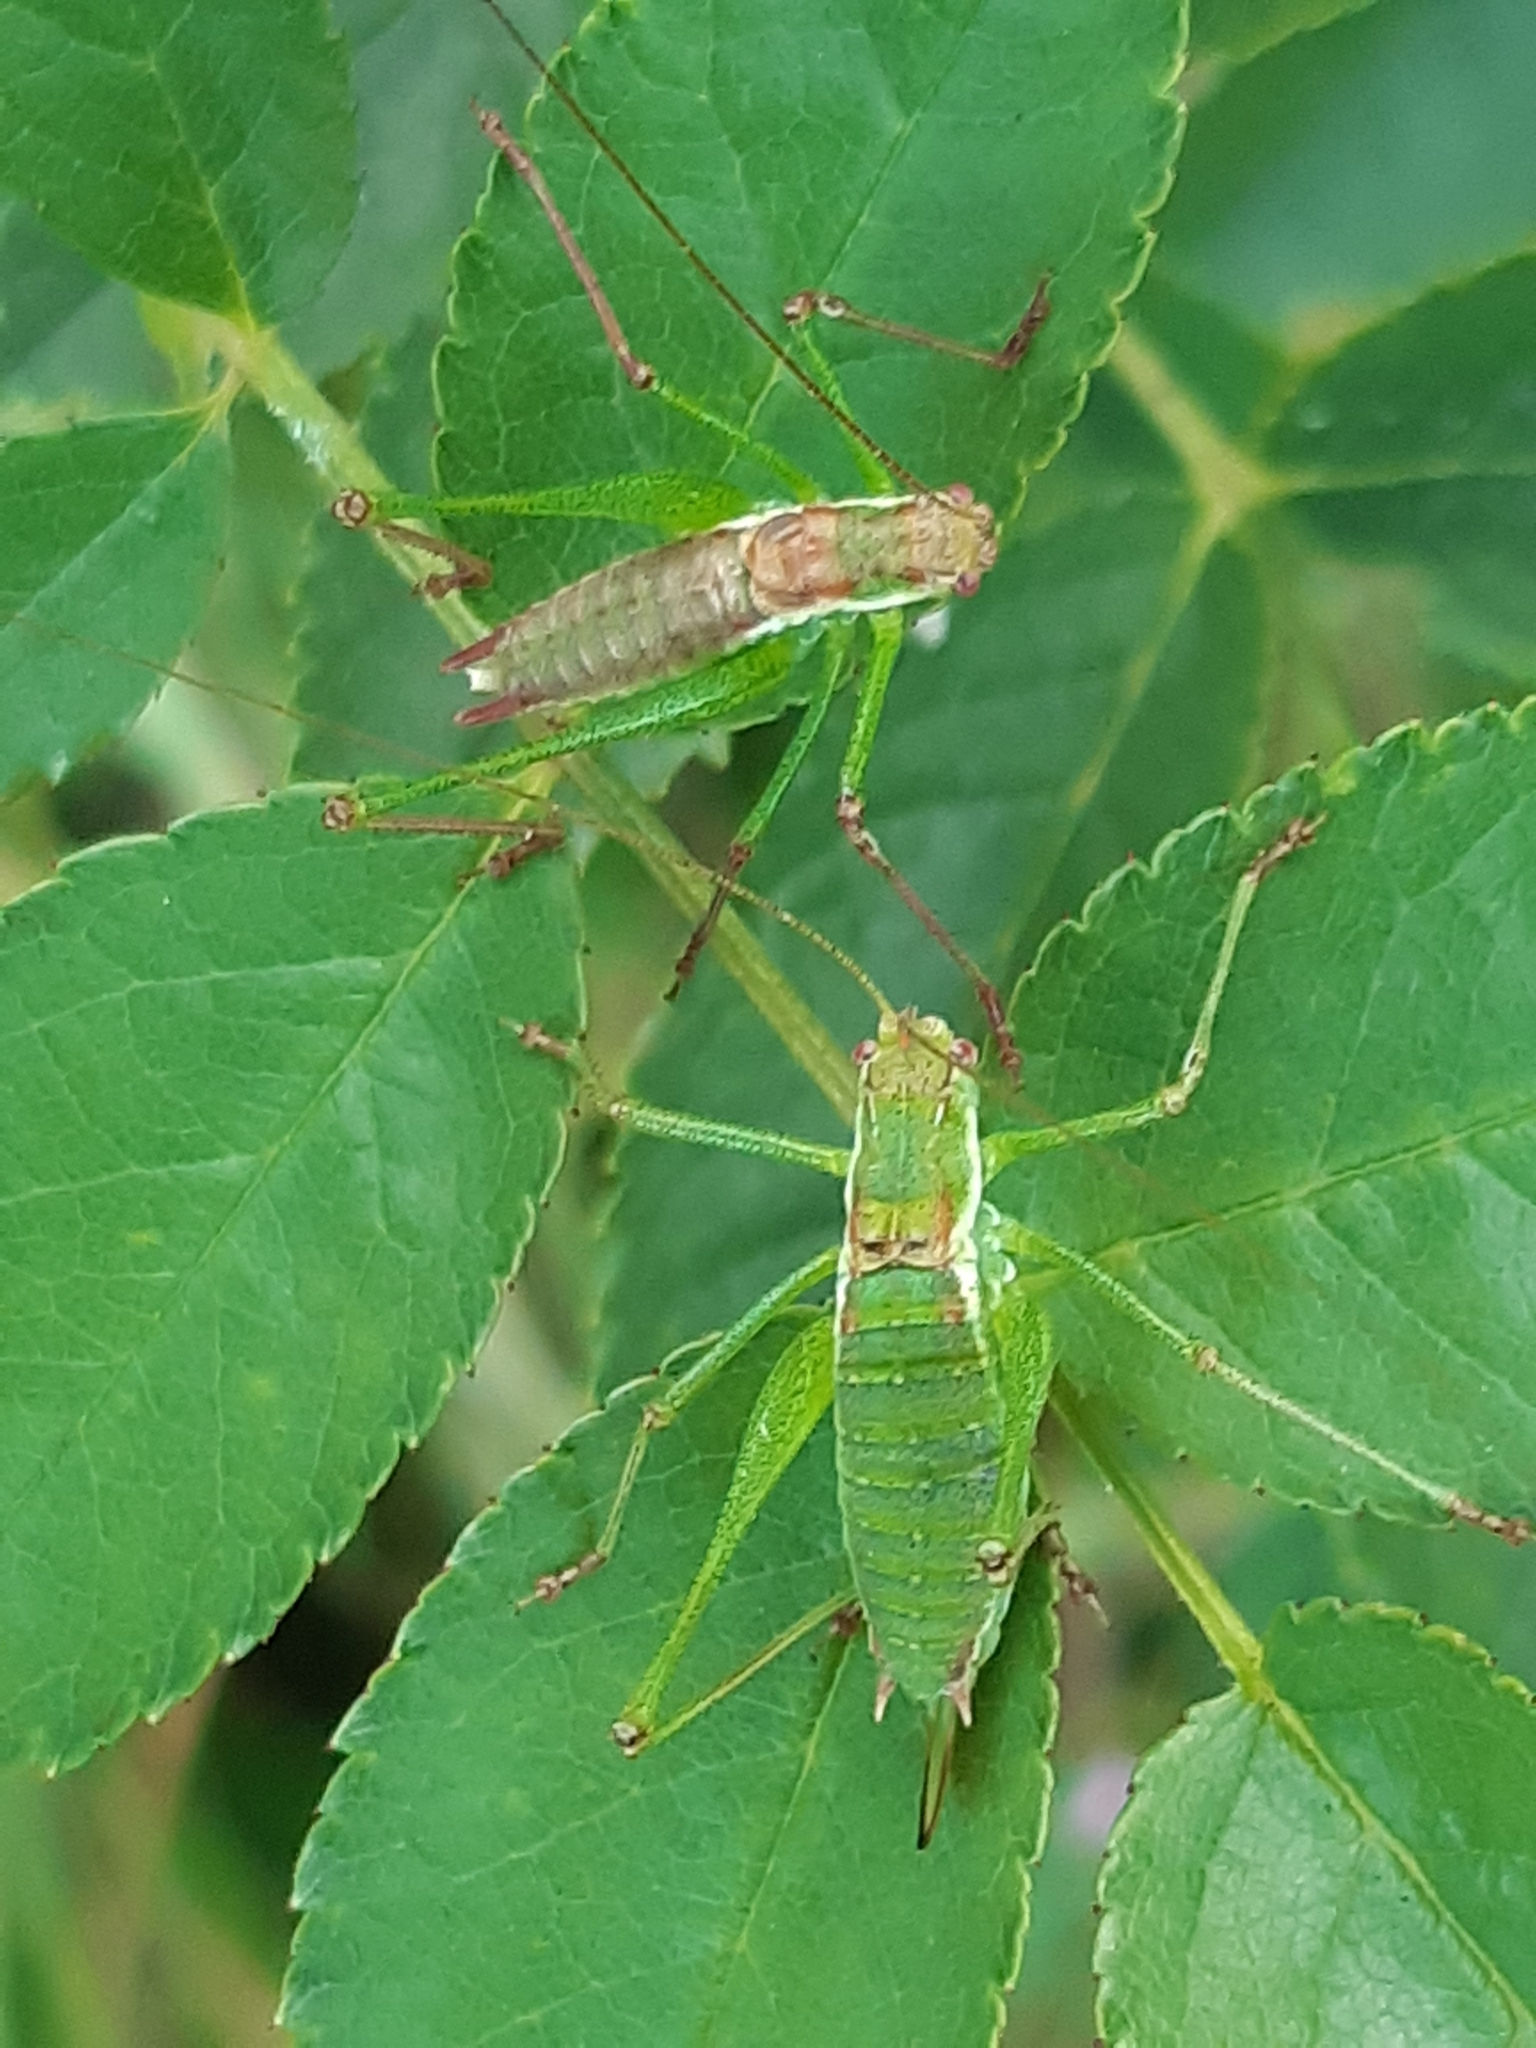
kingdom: Animalia
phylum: Arthropoda
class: Insecta
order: Orthoptera
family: Tettigoniidae
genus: Leptophyes
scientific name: Leptophyes albovittata
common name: Striped bush-cricket
